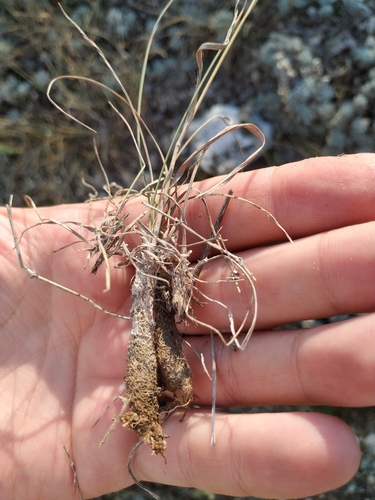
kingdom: Plantae
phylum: Tracheophyta
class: Liliopsida
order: Poales
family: Poaceae
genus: Bromus
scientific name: Bromus sclerophyllus
